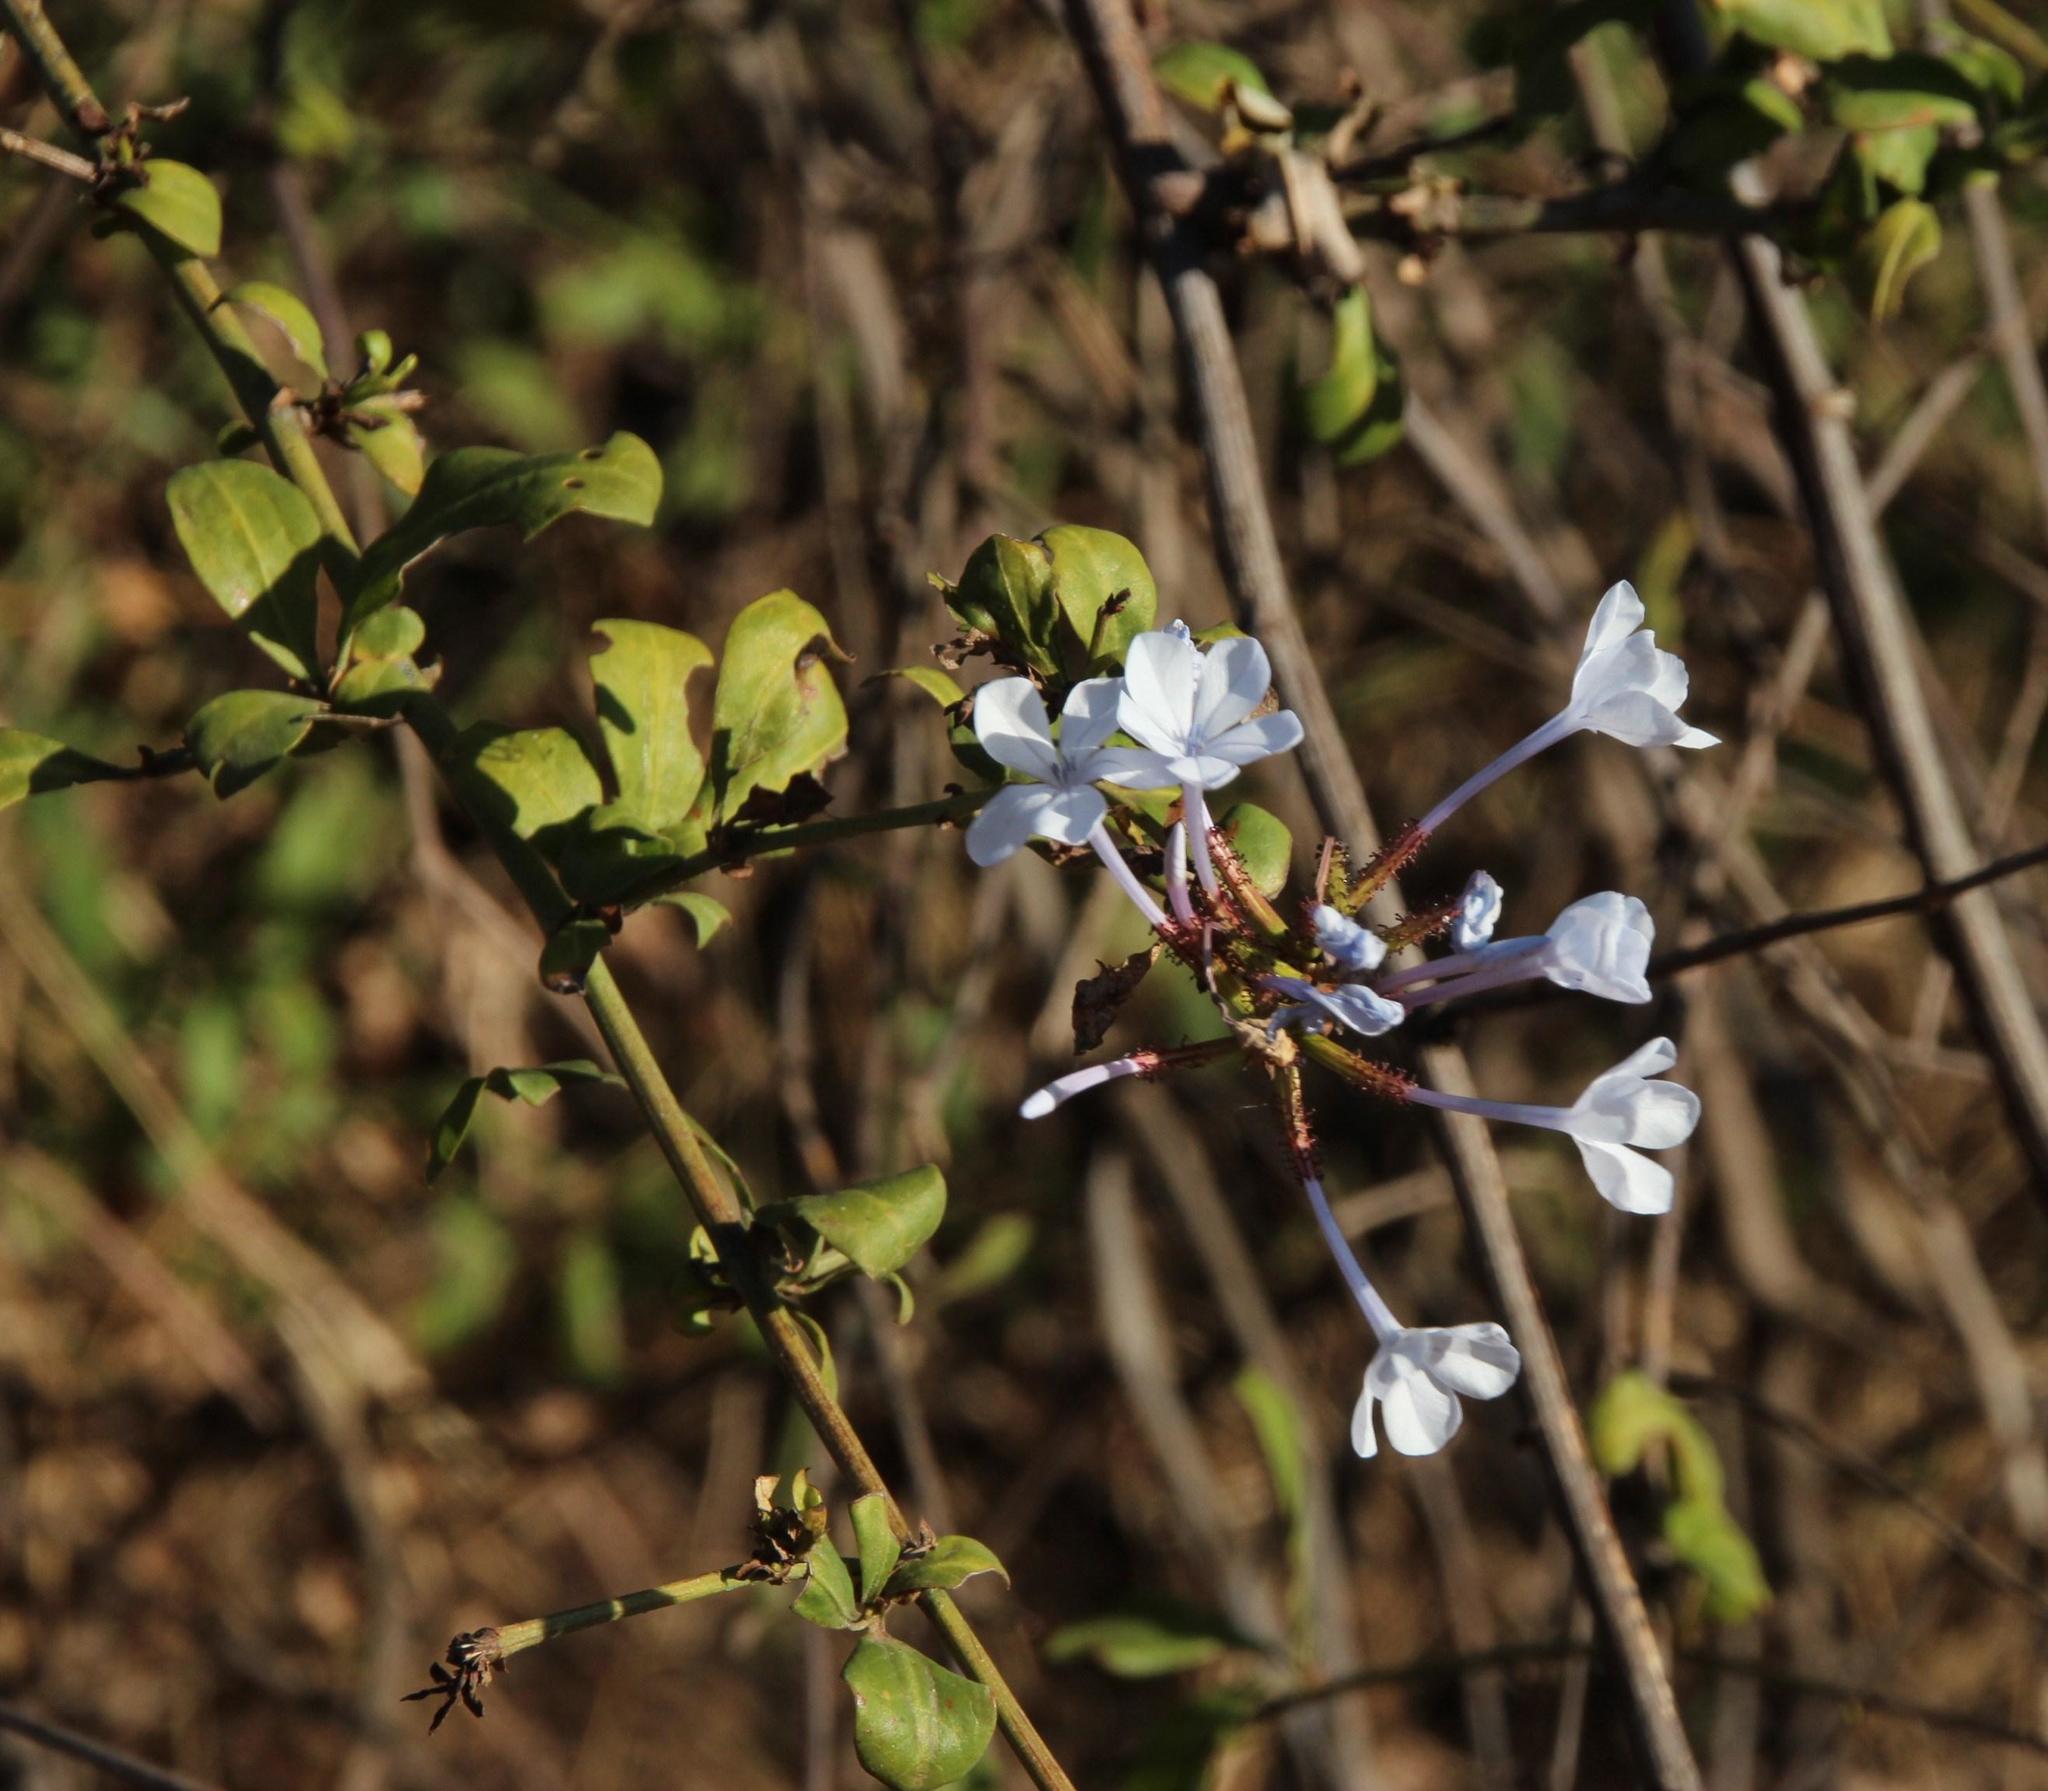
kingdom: Plantae
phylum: Tracheophyta
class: Magnoliopsida
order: Caryophyllales
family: Plumbaginaceae
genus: Plumbago
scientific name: Plumbago auriculata
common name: Cape leadwort
